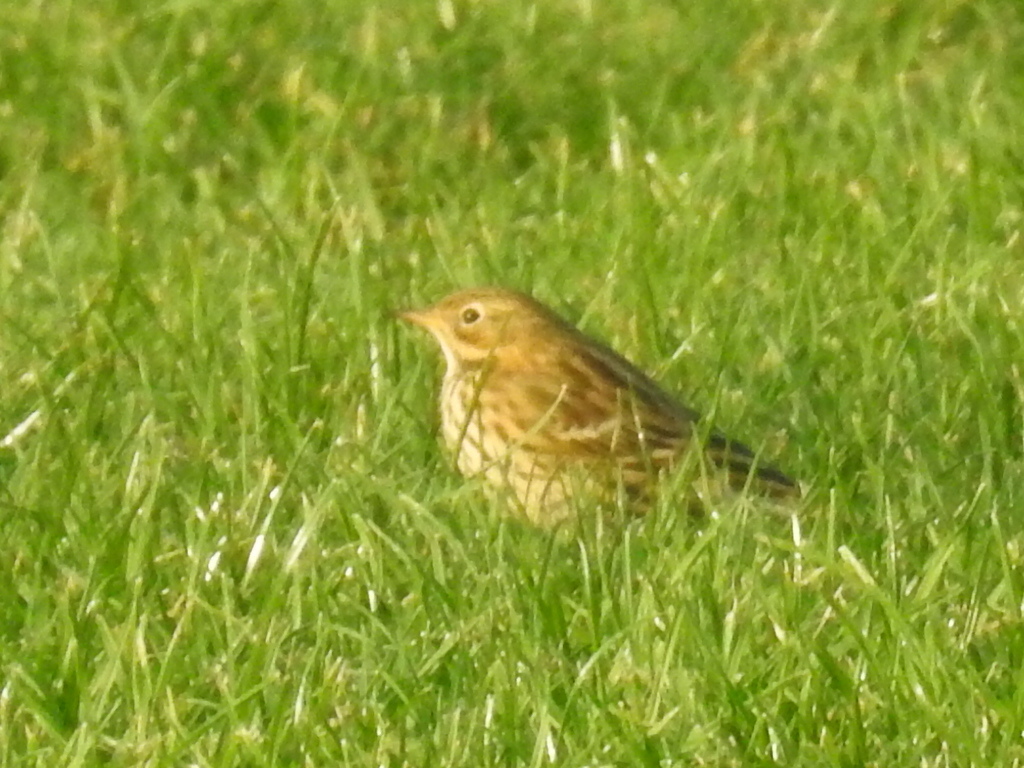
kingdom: Animalia
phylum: Chordata
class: Aves
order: Passeriformes
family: Motacillidae
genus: Anthus
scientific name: Anthus pratensis
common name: Meadow pipit
